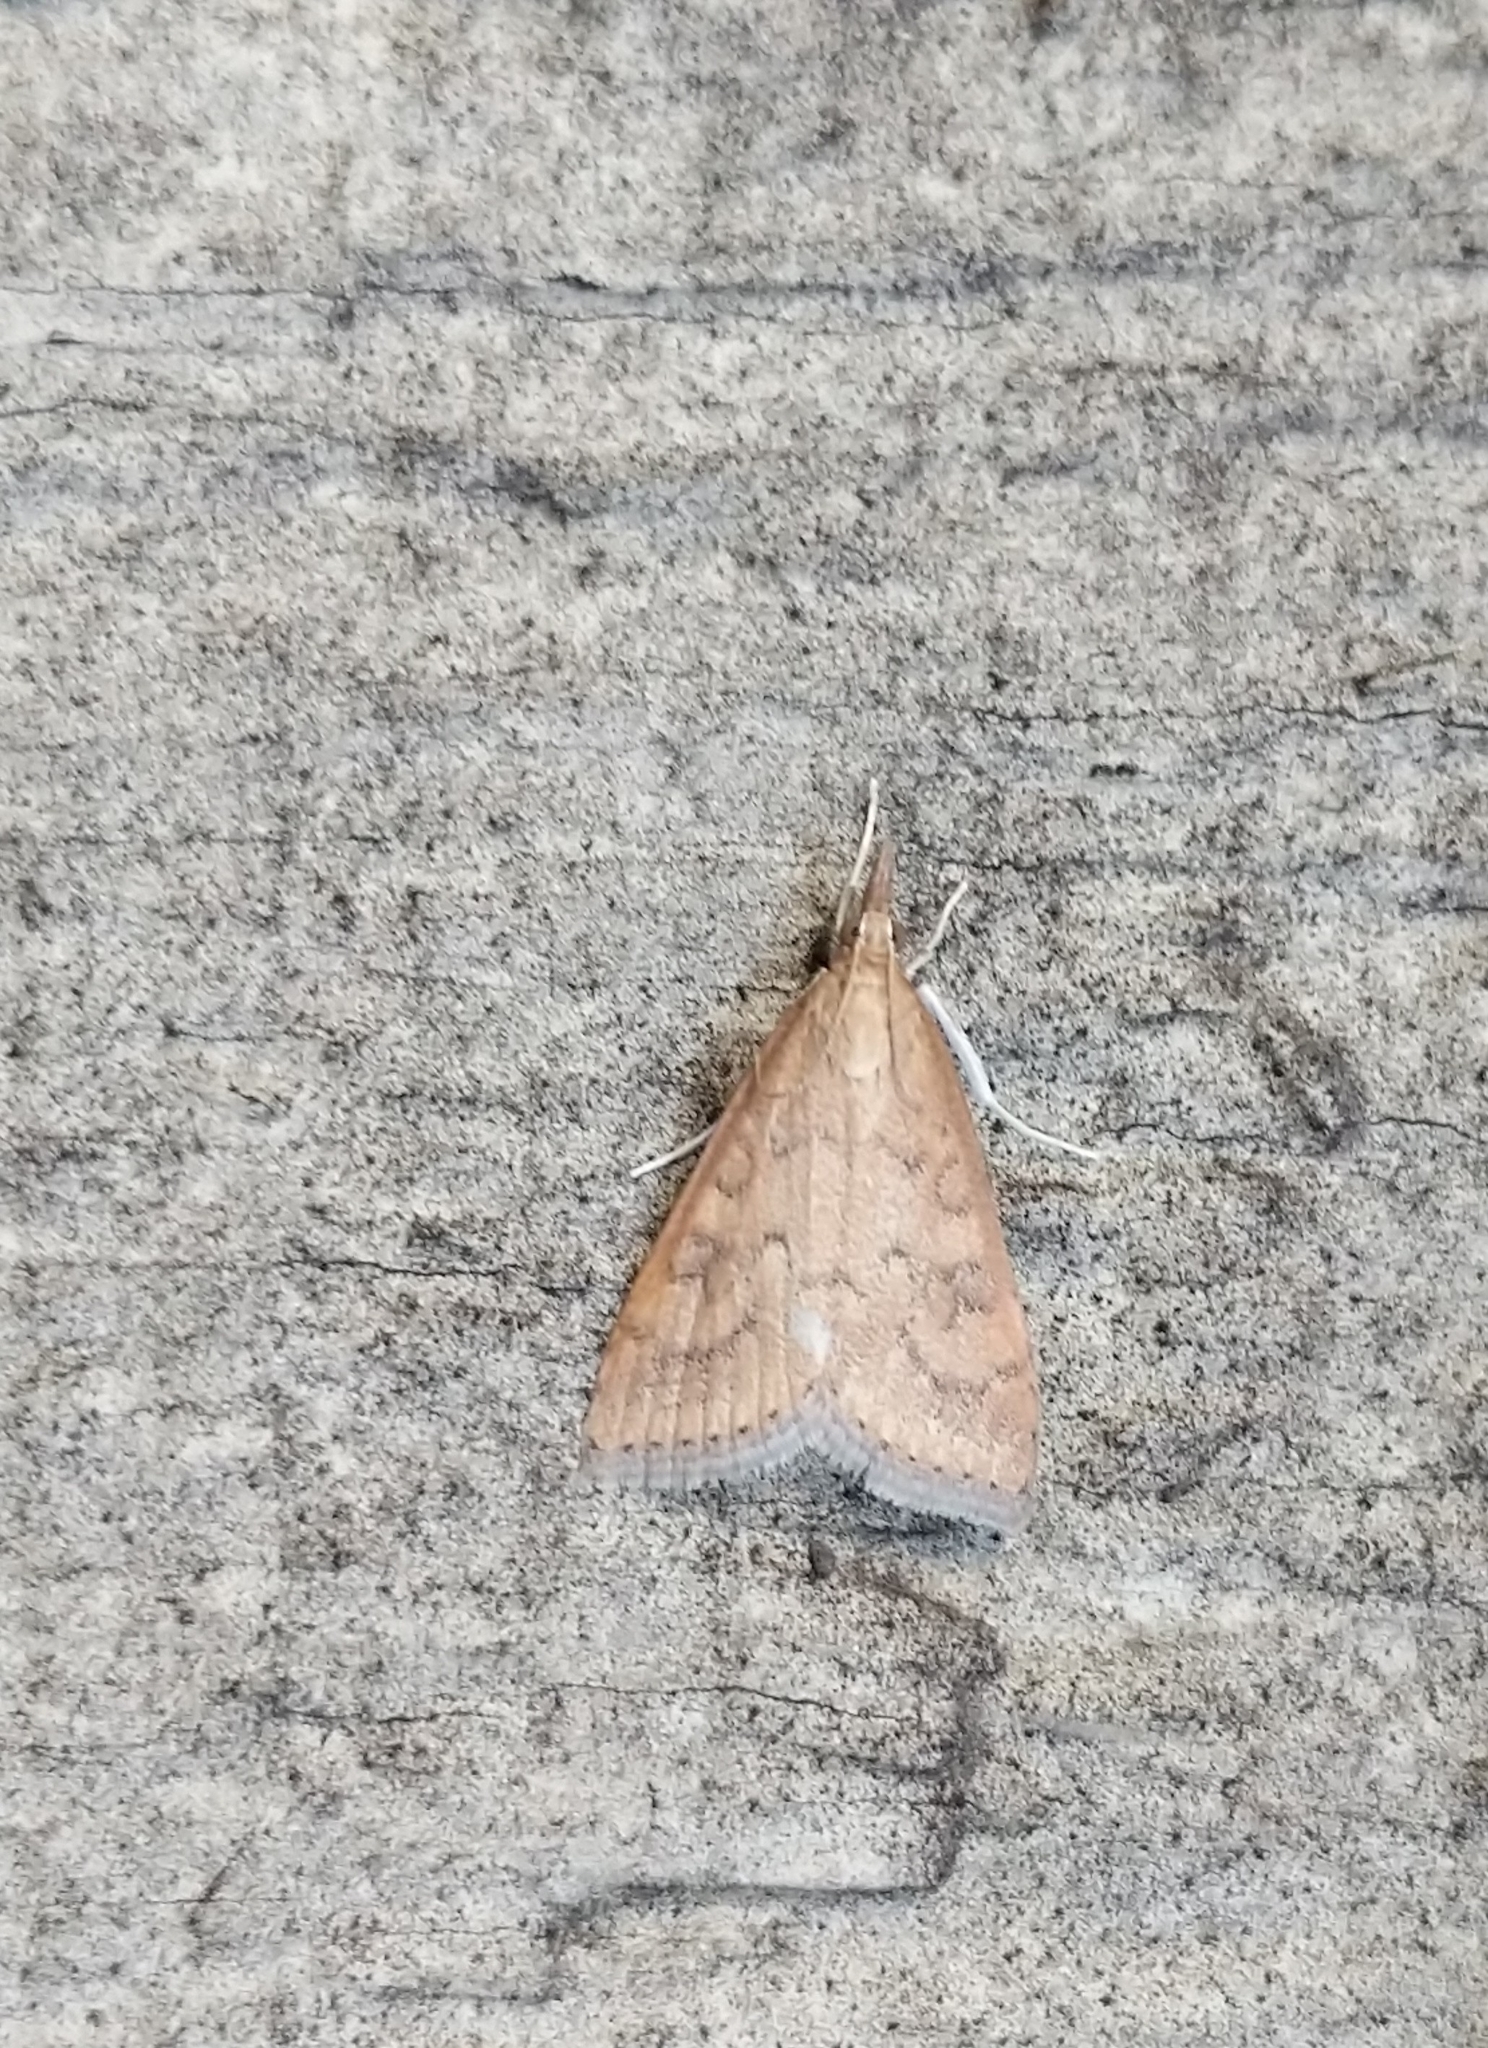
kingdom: Animalia
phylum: Arthropoda
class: Insecta
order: Lepidoptera
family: Crambidae
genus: Udea
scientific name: Udea rubigalis
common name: Celery leaftier moth
